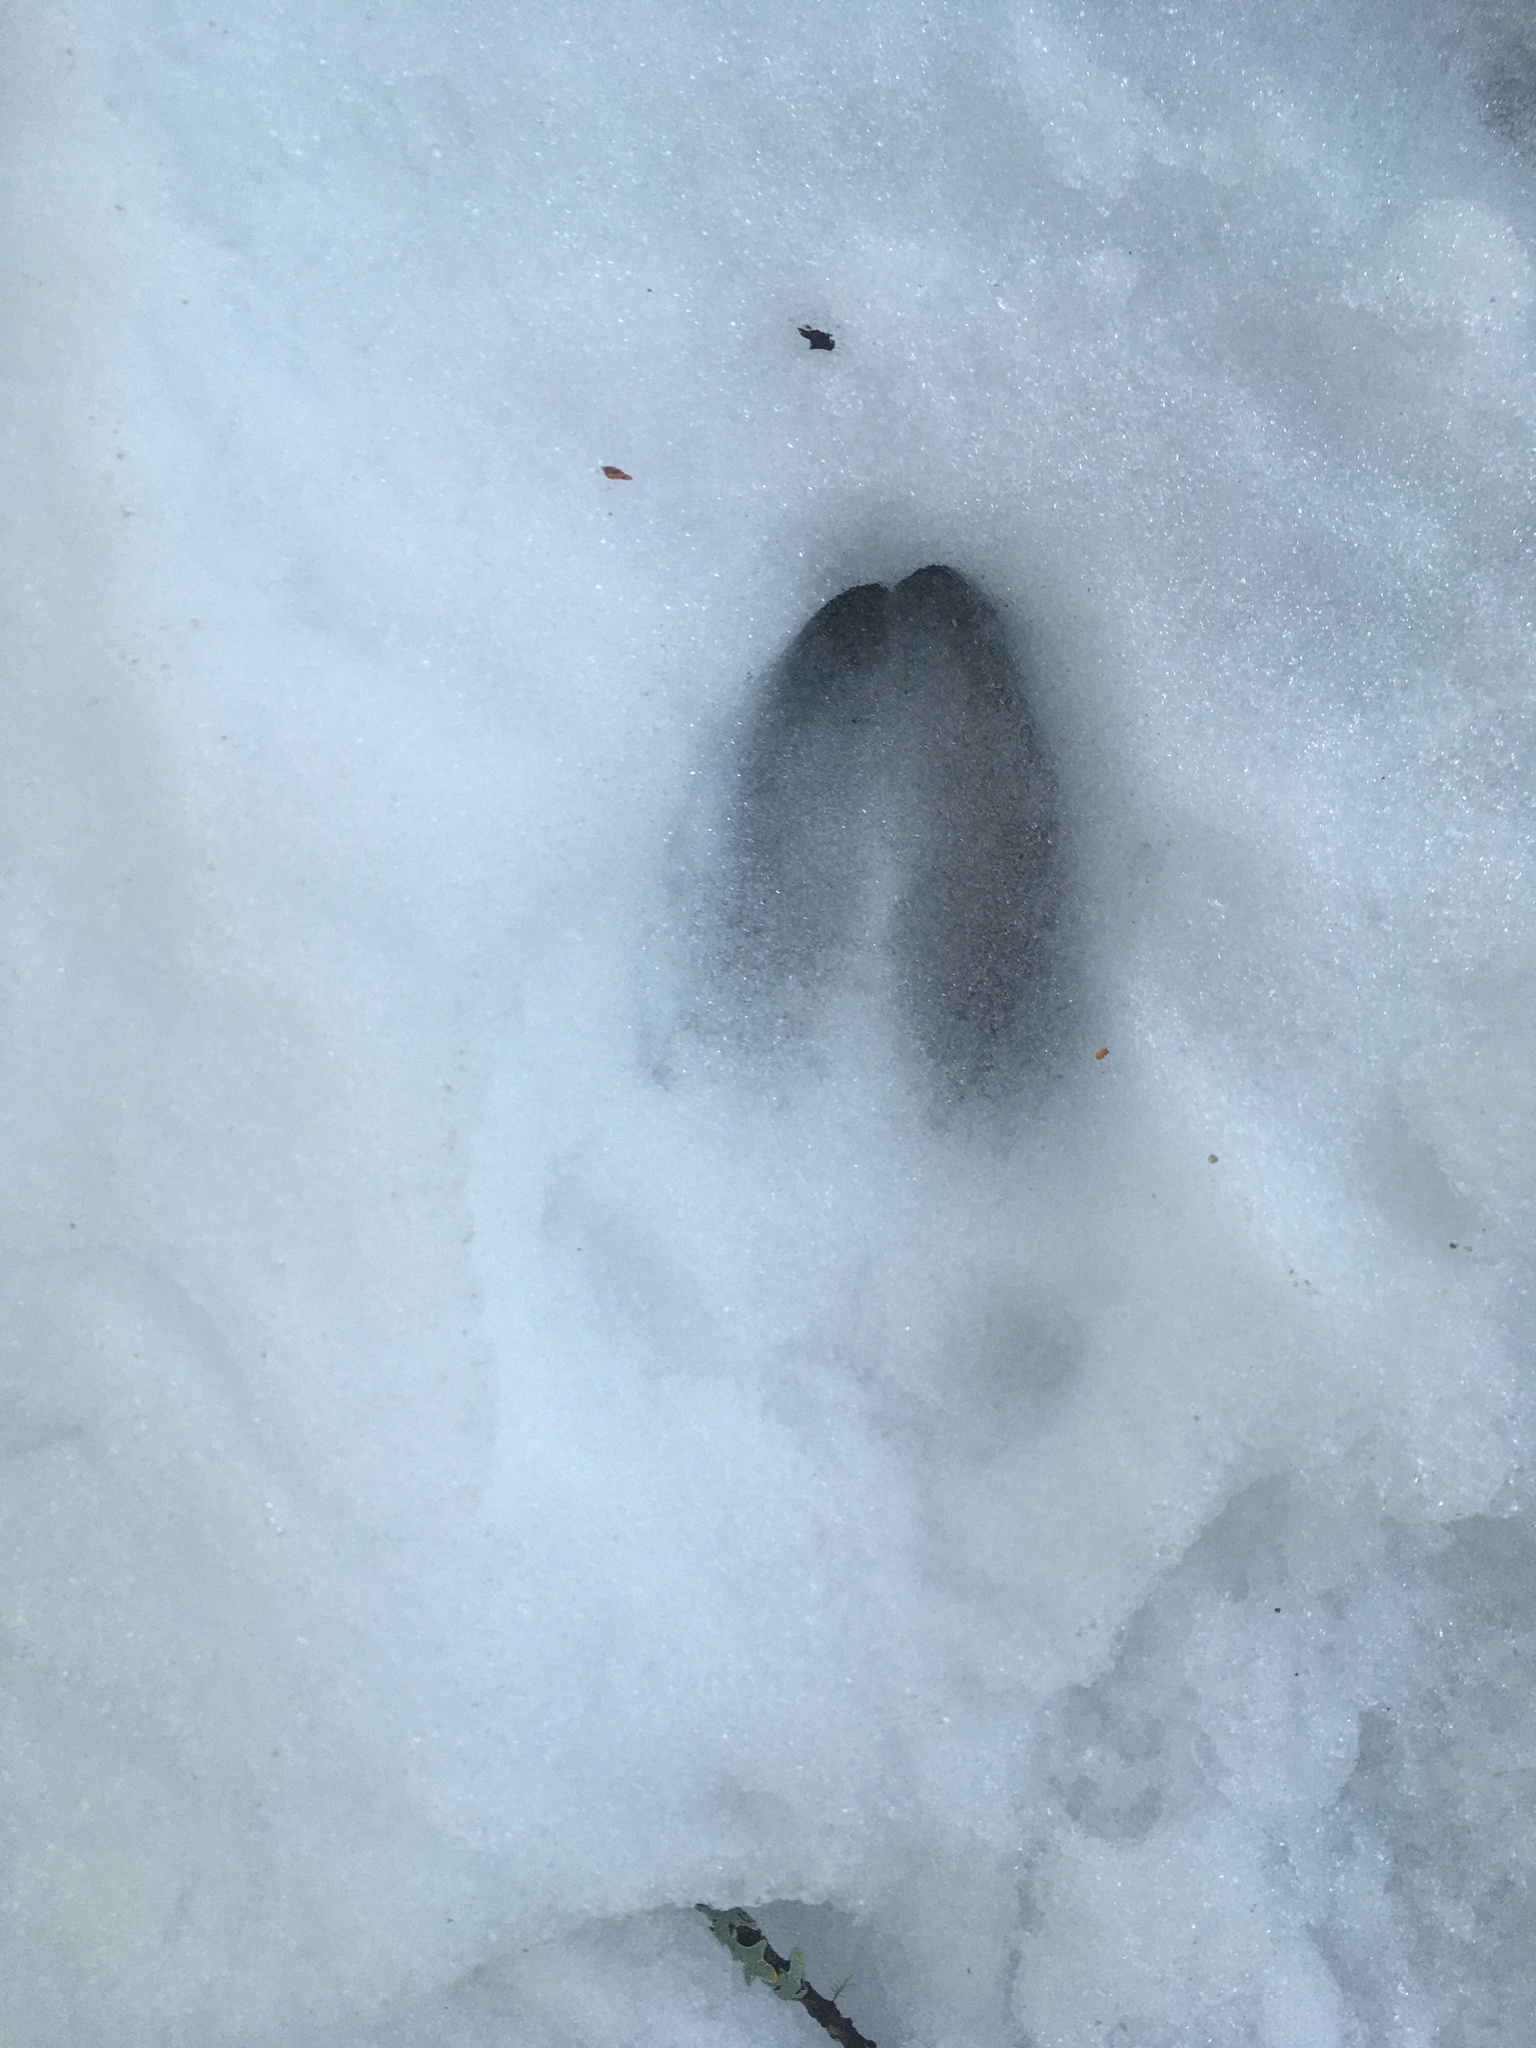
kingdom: Animalia
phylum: Chordata
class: Mammalia
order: Artiodactyla
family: Cervidae
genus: Odocoileus
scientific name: Odocoileus hemionus
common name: Mule deer
